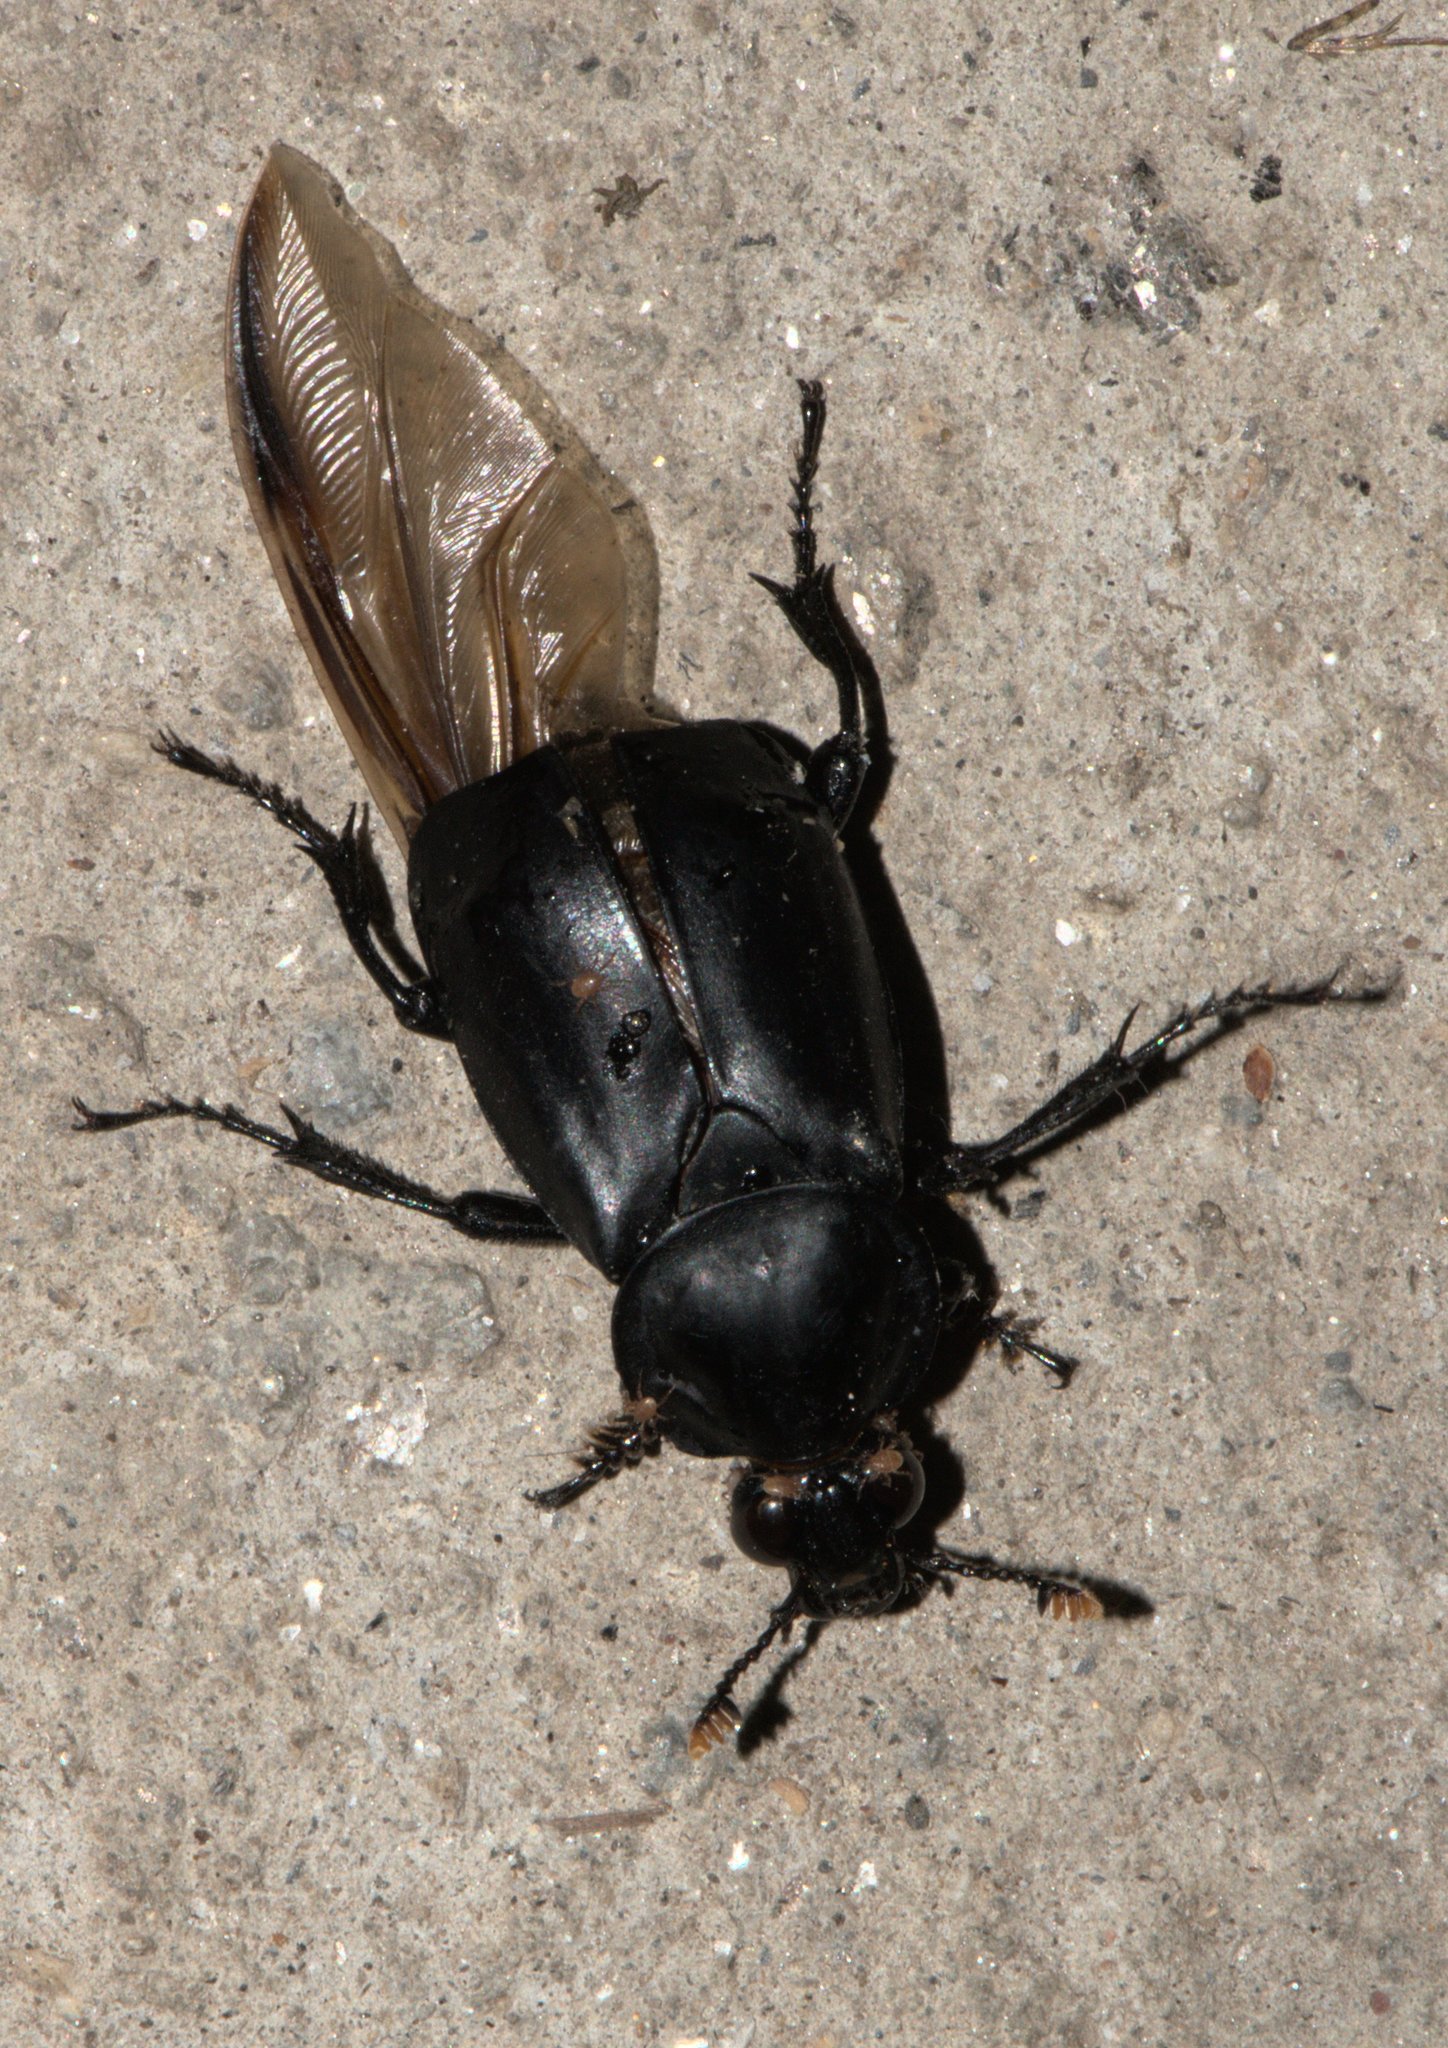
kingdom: Animalia
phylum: Arthropoda
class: Insecta
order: Coleoptera
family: Staphylinidae
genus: Nicrophorus
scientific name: Nicrophorus concolor
